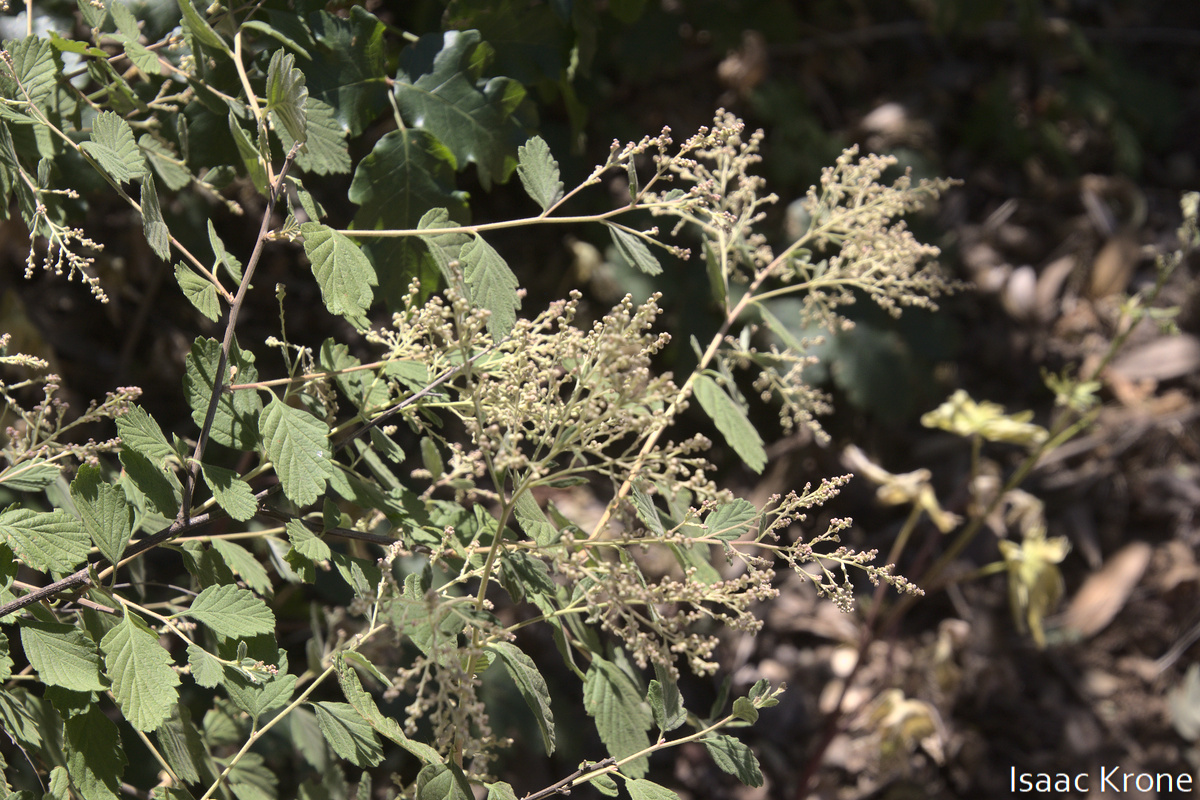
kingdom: Plantae
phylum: Tracheophyta
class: Magnoliopsida
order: Rosales
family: Rosaceae
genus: Holodiscus
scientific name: Holodiscus discolor
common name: Oceanspray
